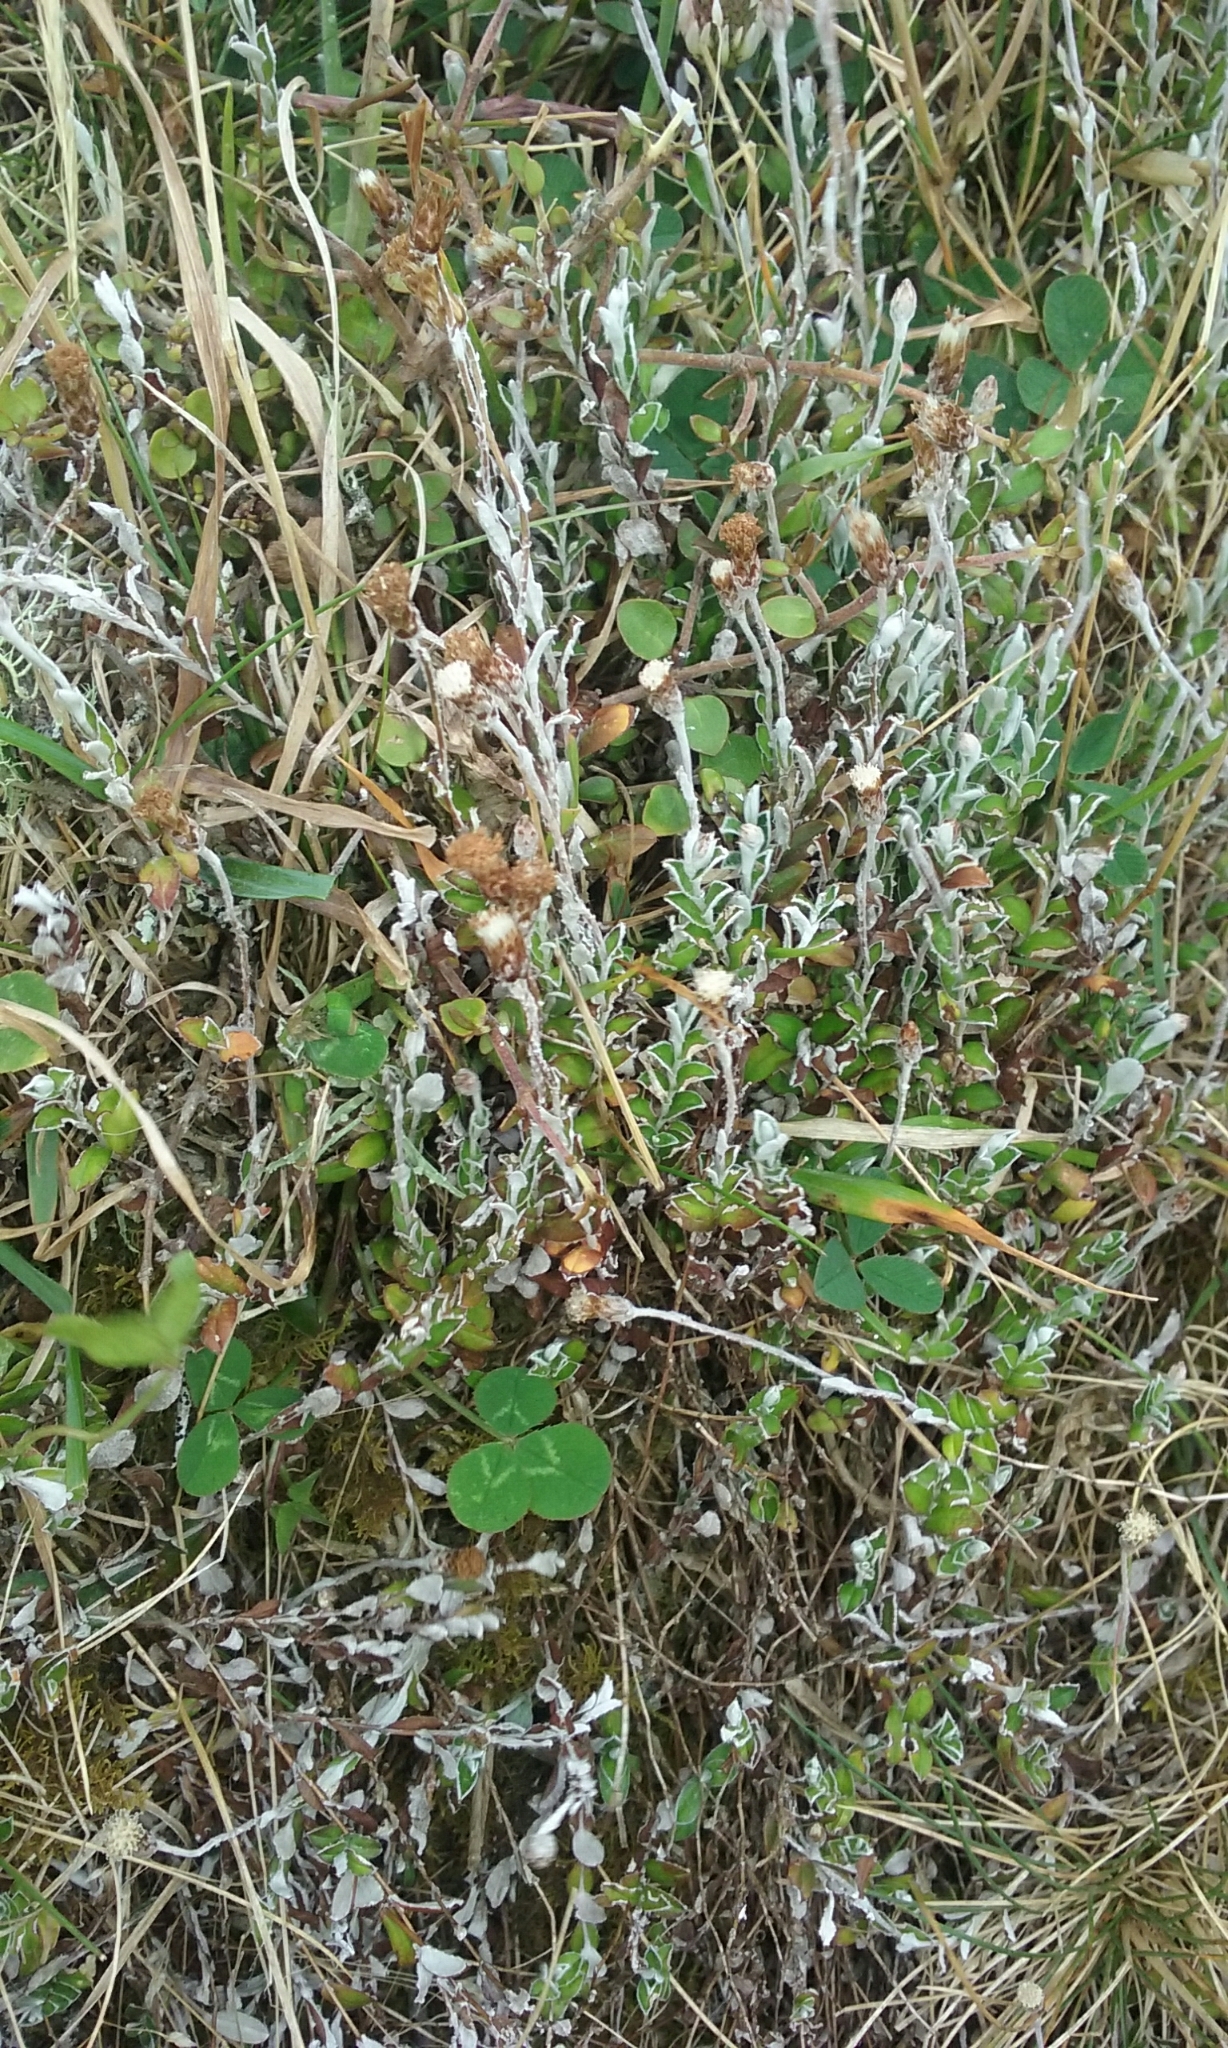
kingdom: Plantae
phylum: Tracheophyta
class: Magnoliopsida
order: Asterales
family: Asteraceae
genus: Helichrysum
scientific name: Helichrysum filicaule
